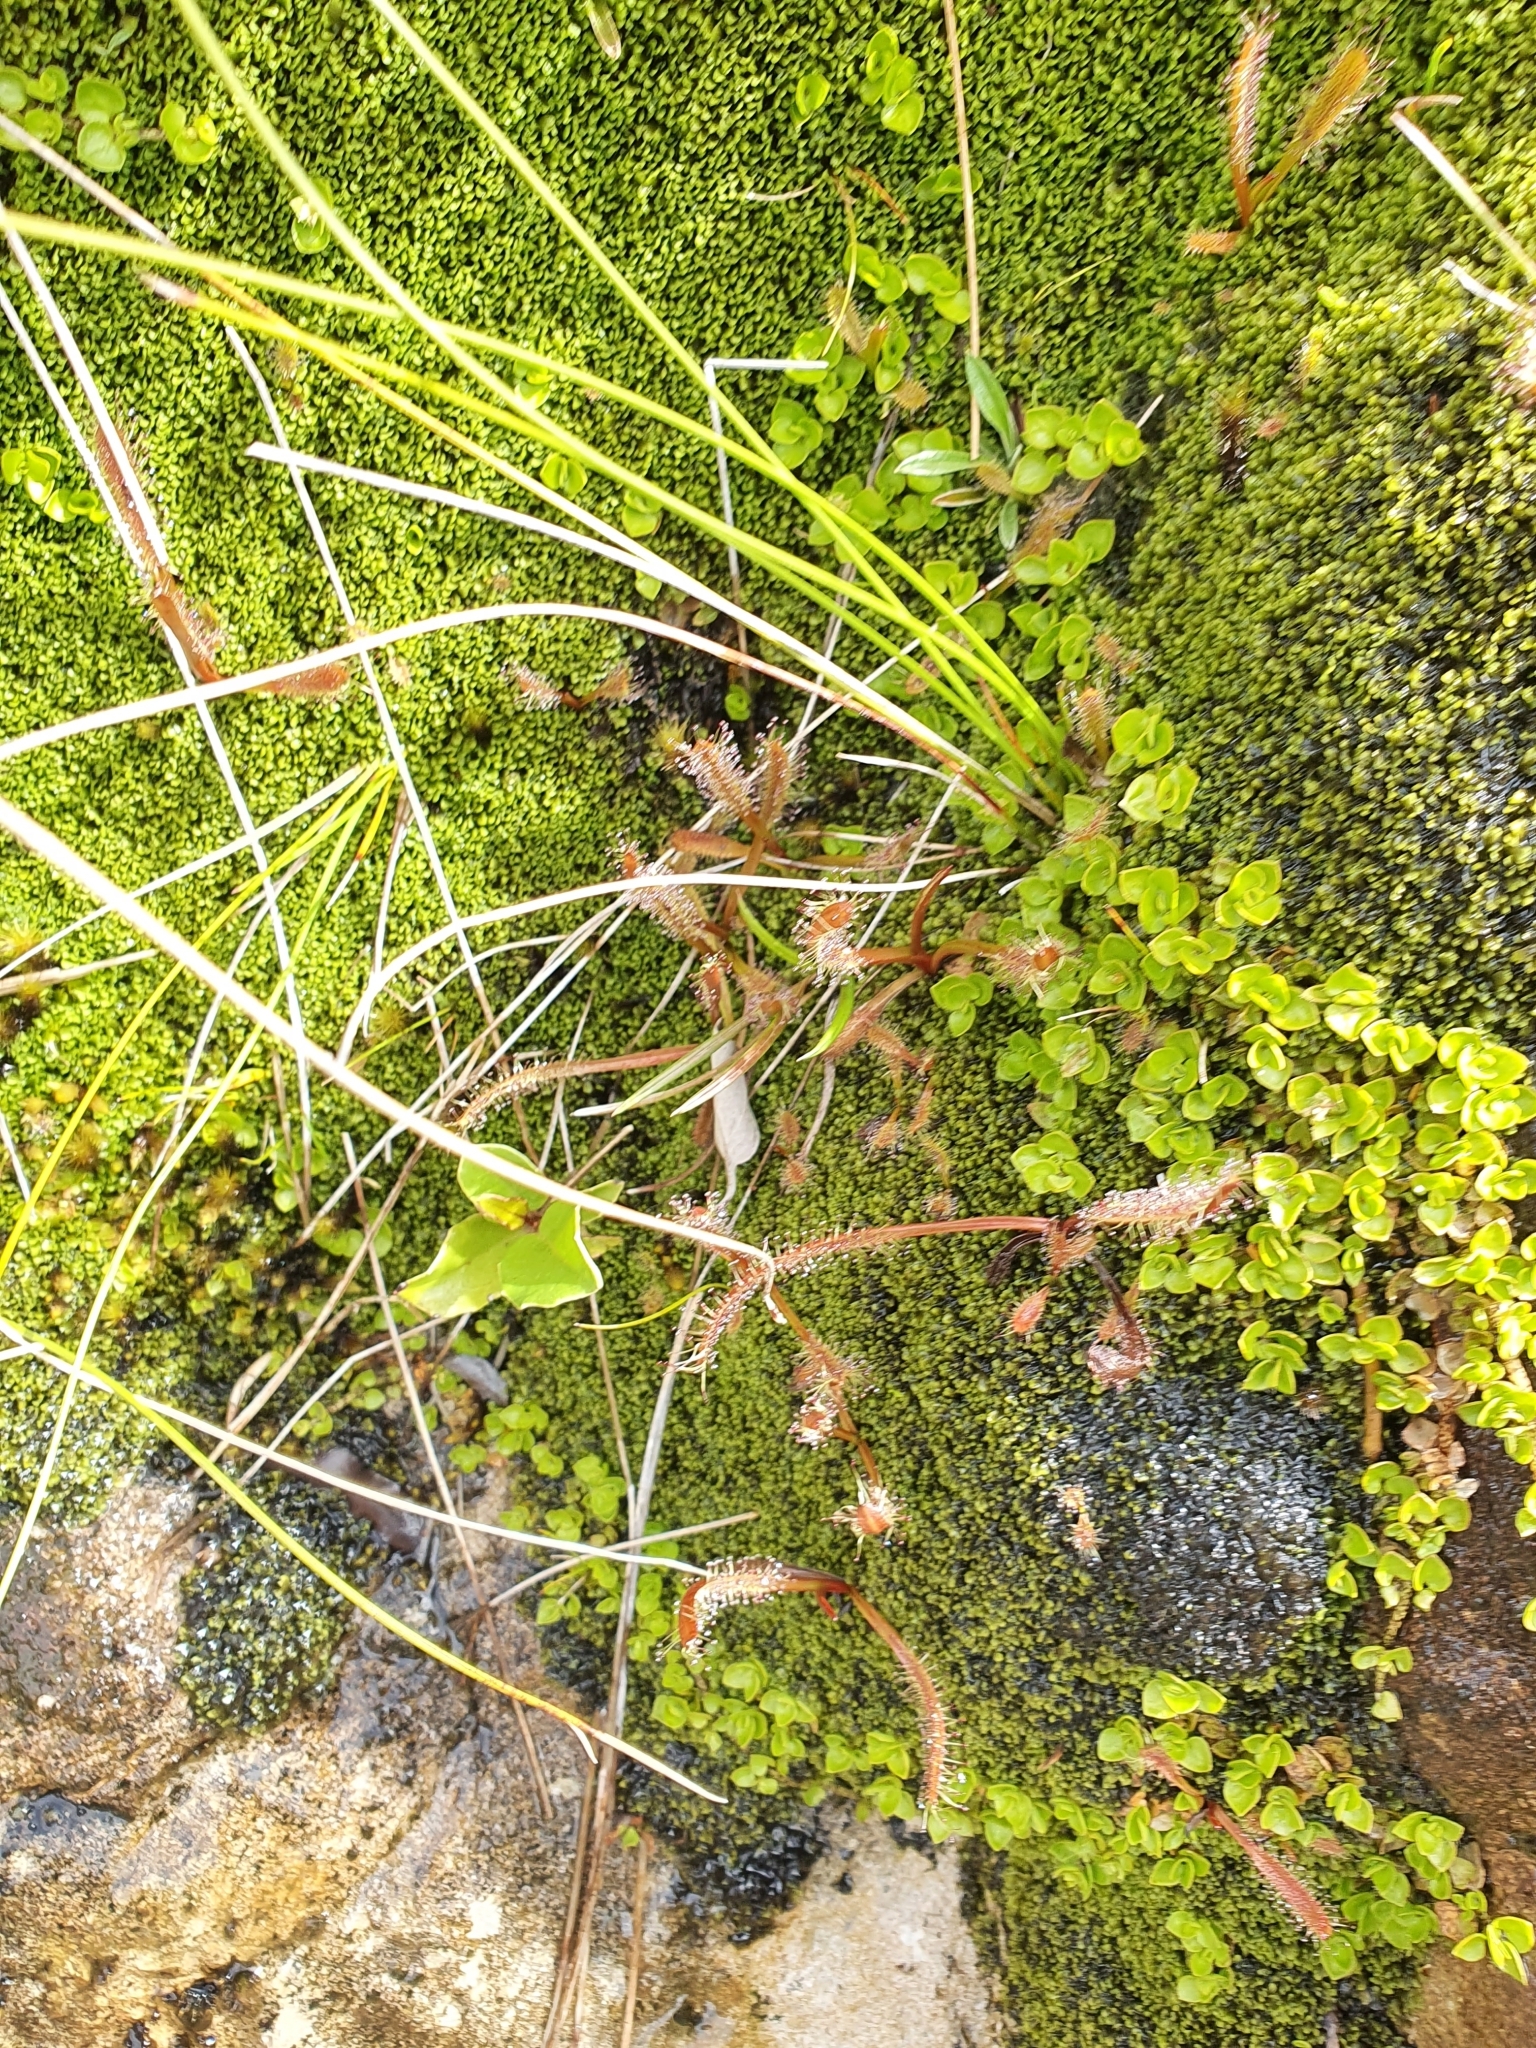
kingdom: Plantae
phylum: Tracheophyta
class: Magnoliopsida
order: Caryophyllales
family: Droseraceae
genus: Drosera
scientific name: Drosera arcturi
